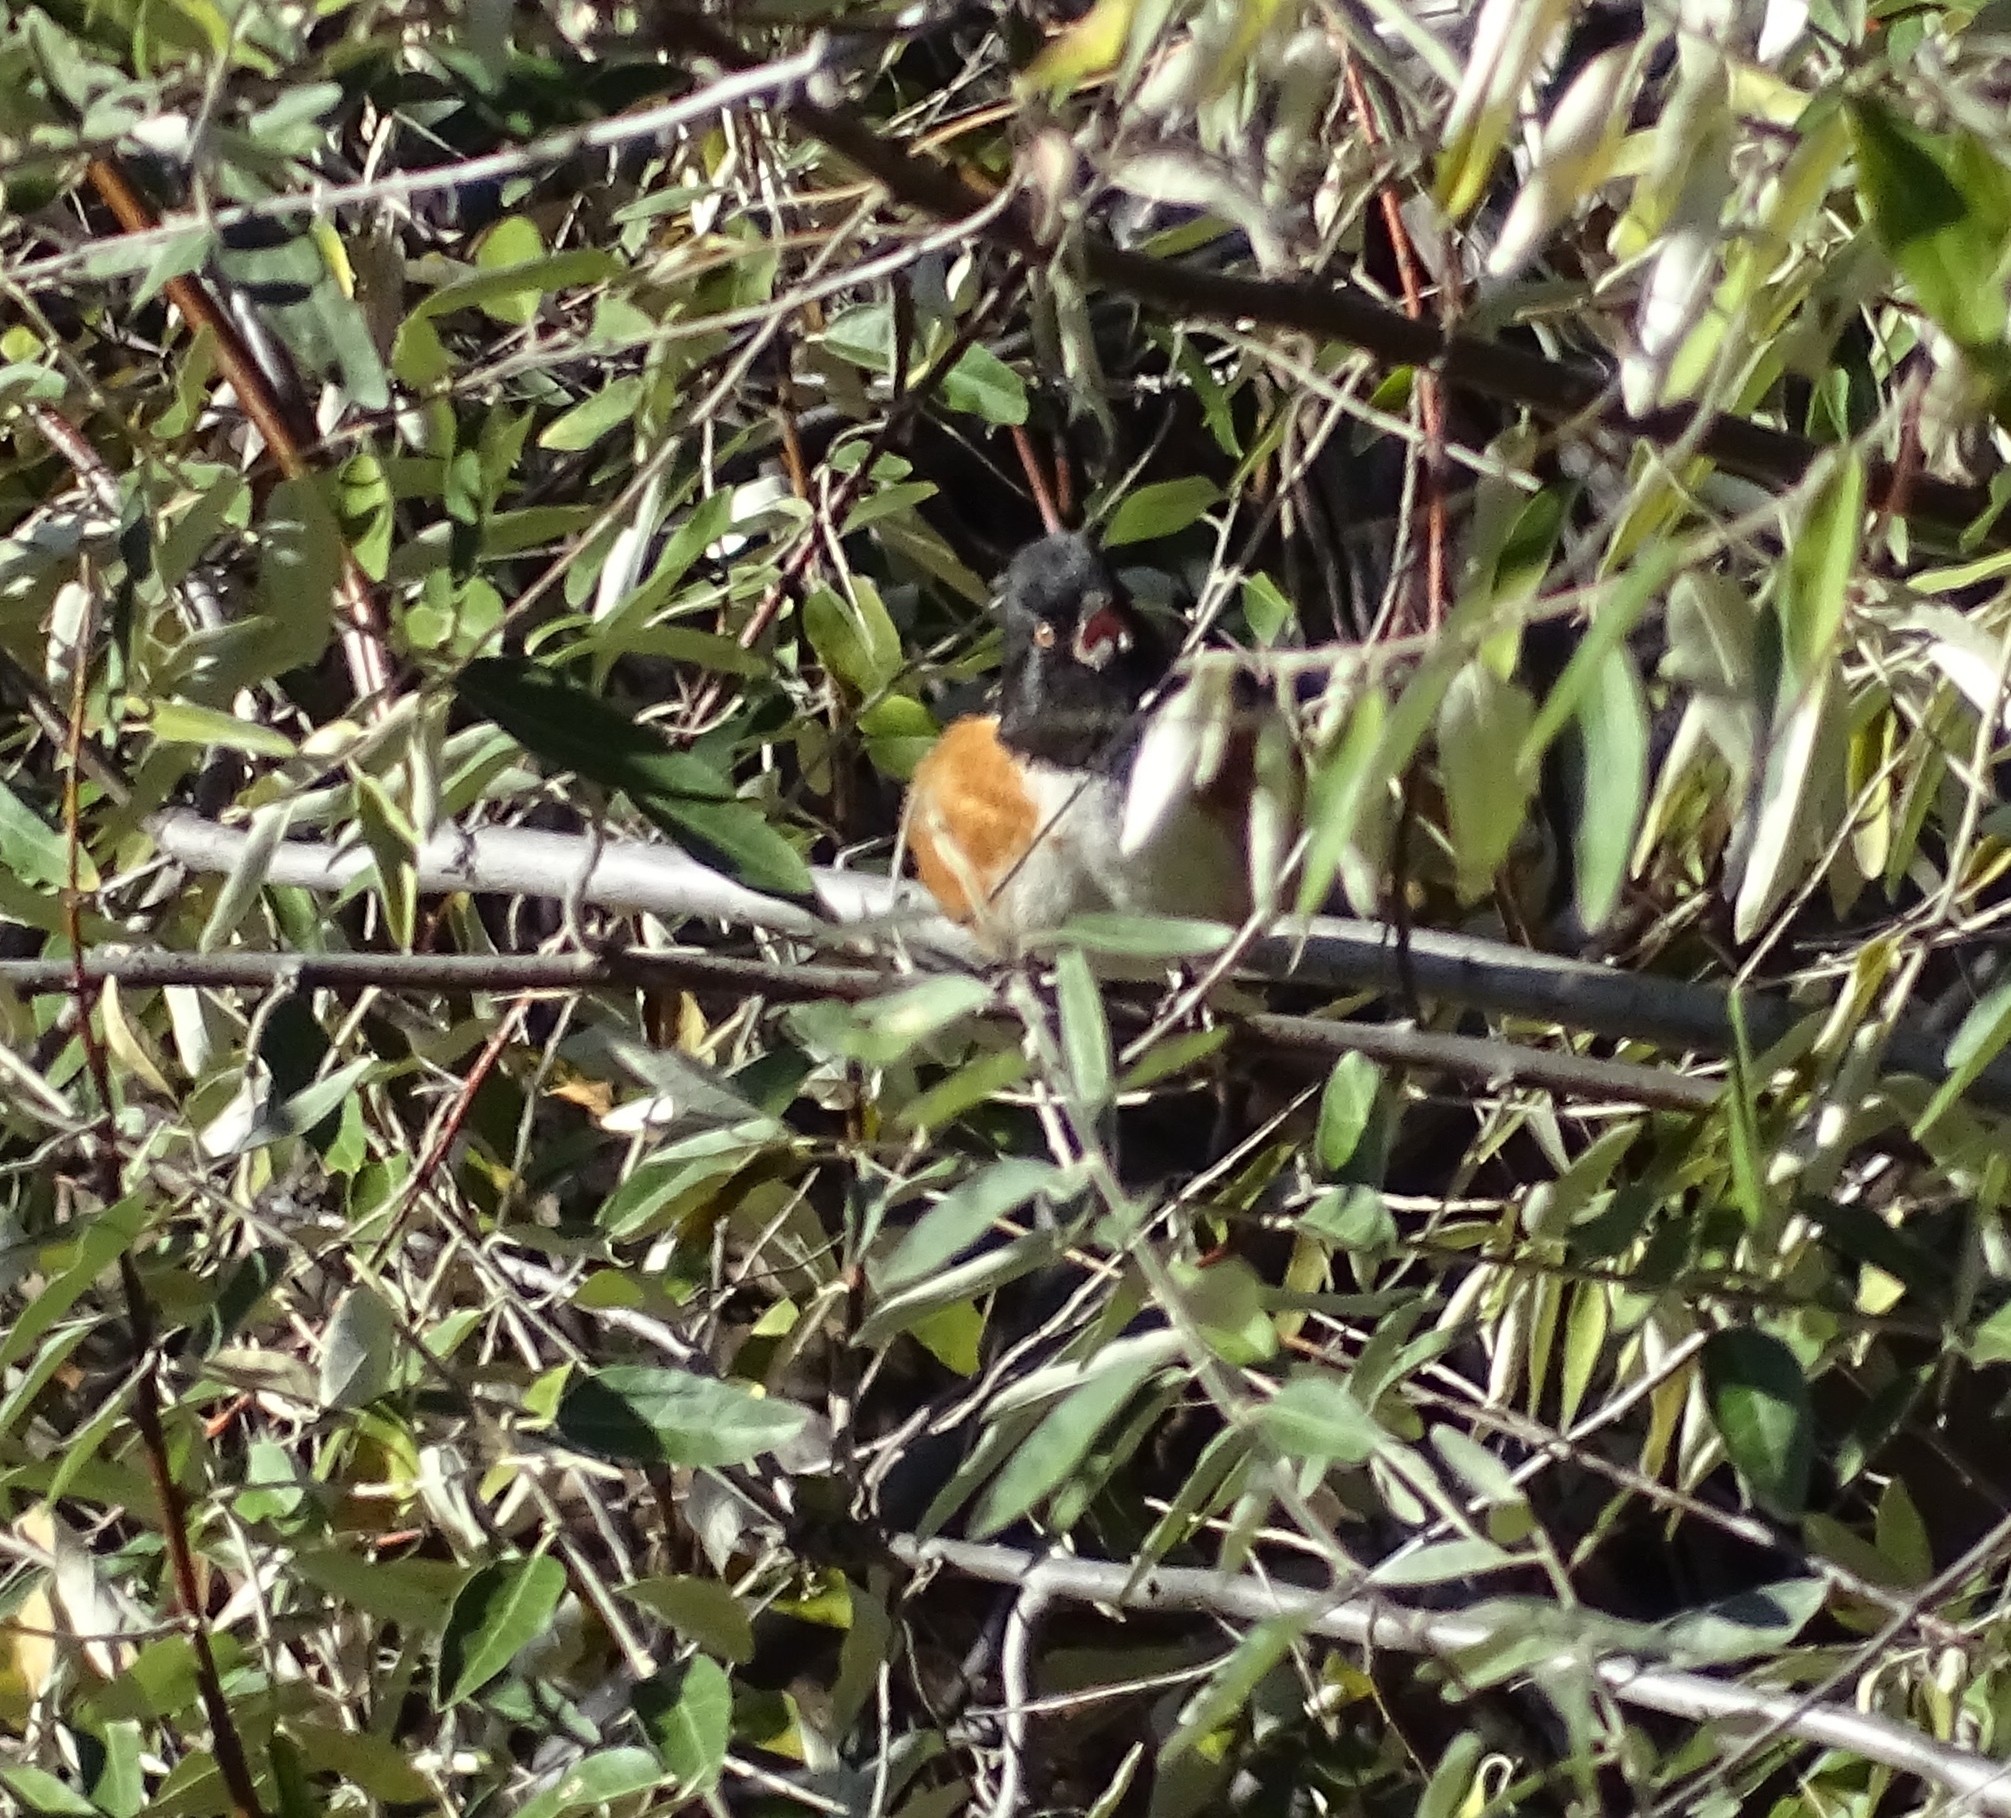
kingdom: Animalia
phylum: Chordata
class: Aves
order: Passeriformes
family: Passerellidae
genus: Pipilo
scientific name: Pipilo maculatus
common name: Spotted towhee
